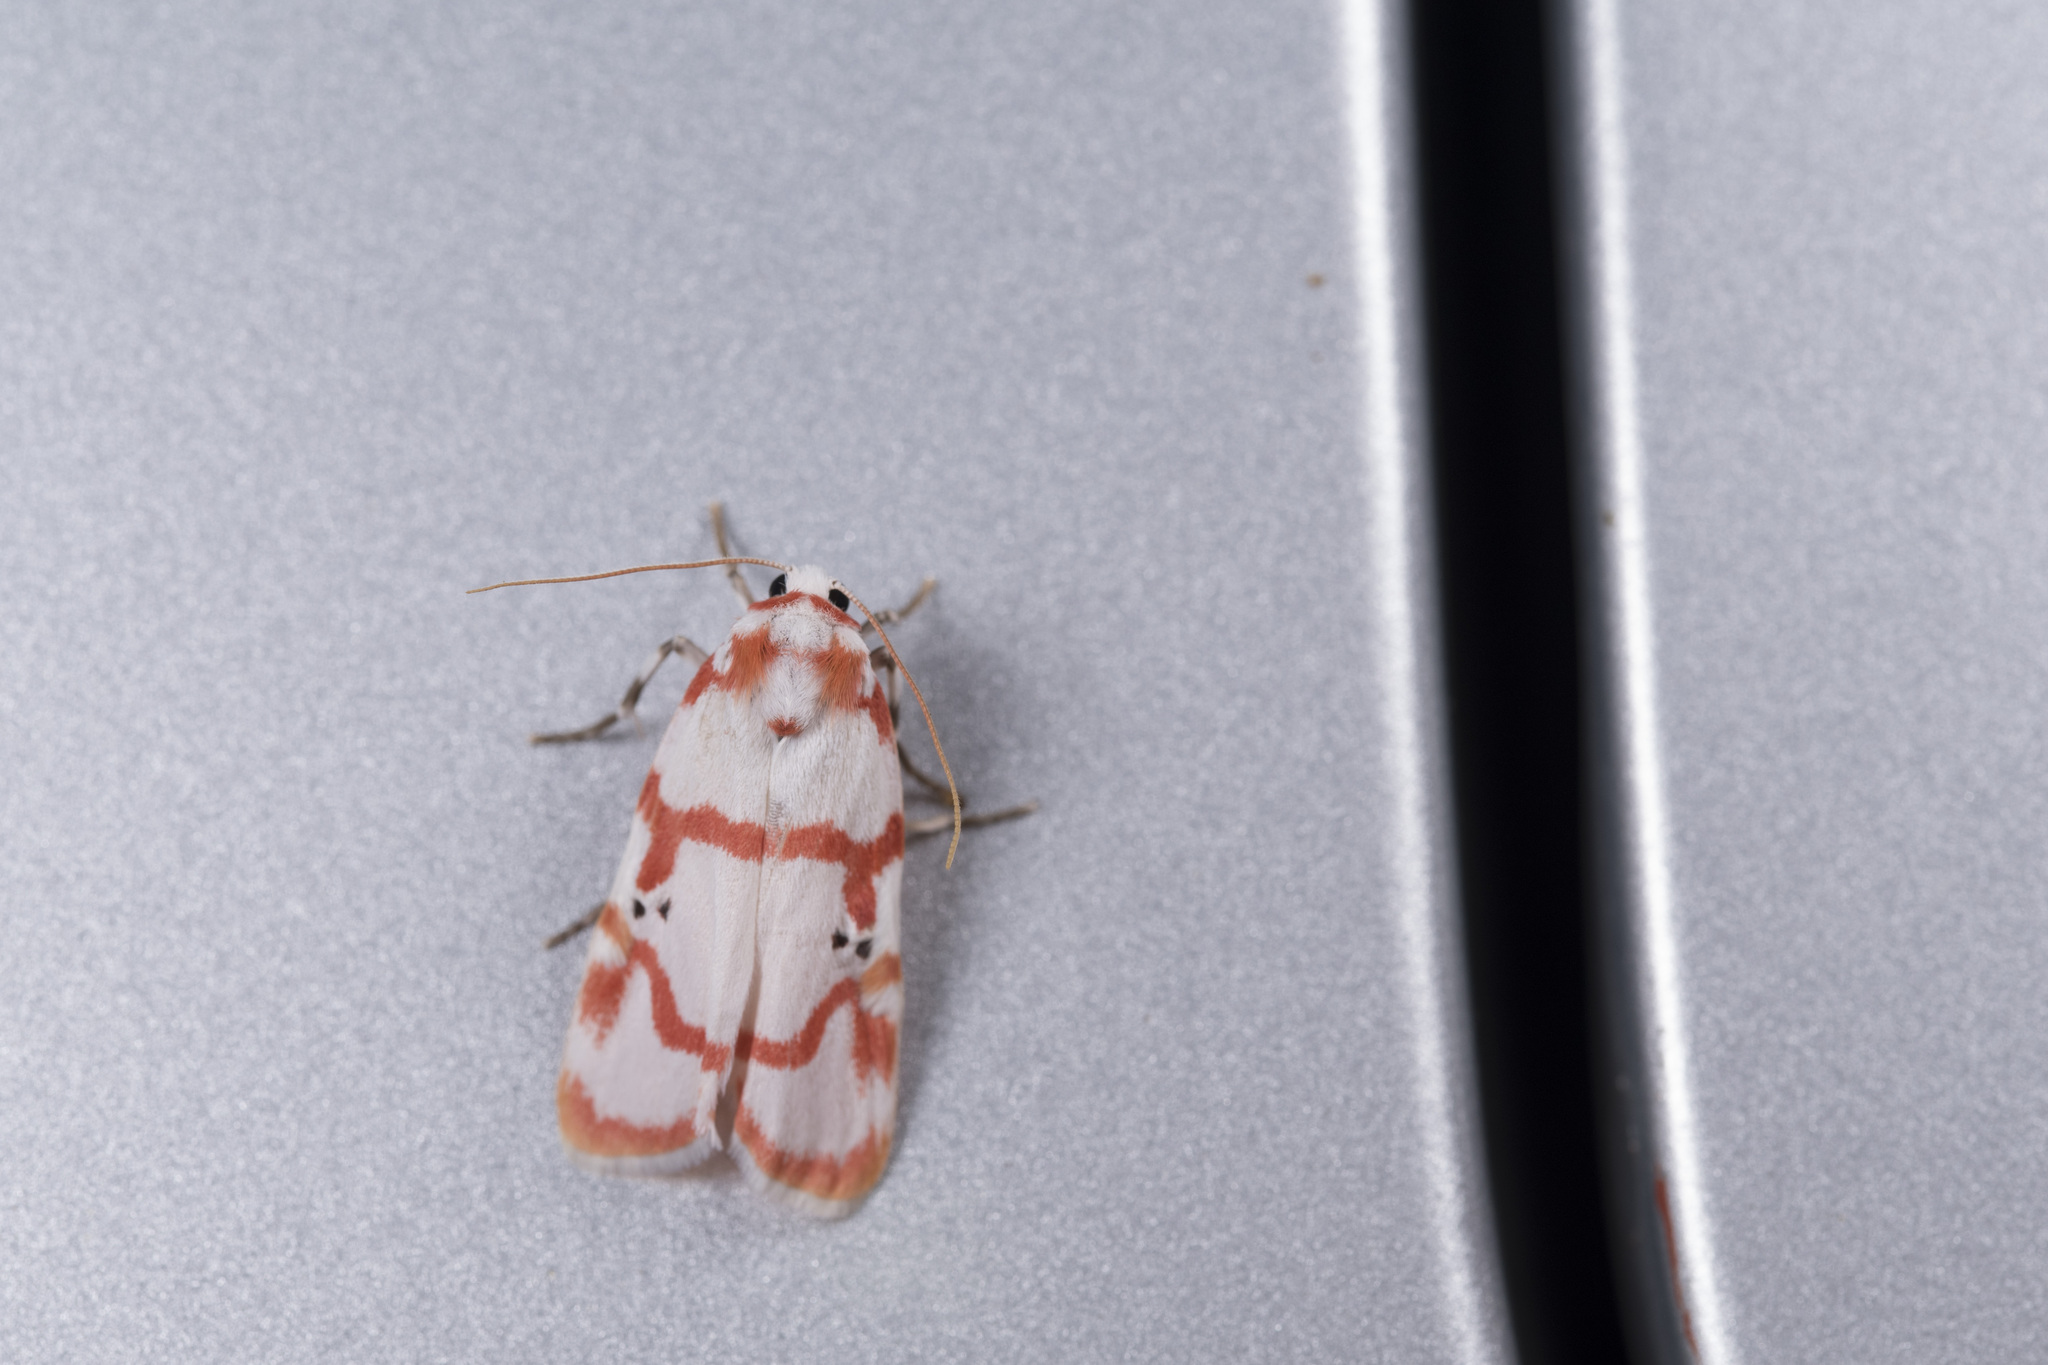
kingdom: Animalia
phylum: Arthropoda
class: Insecta
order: Lepidoptera
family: Erebidae
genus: Cyana
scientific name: Cyana hamata
